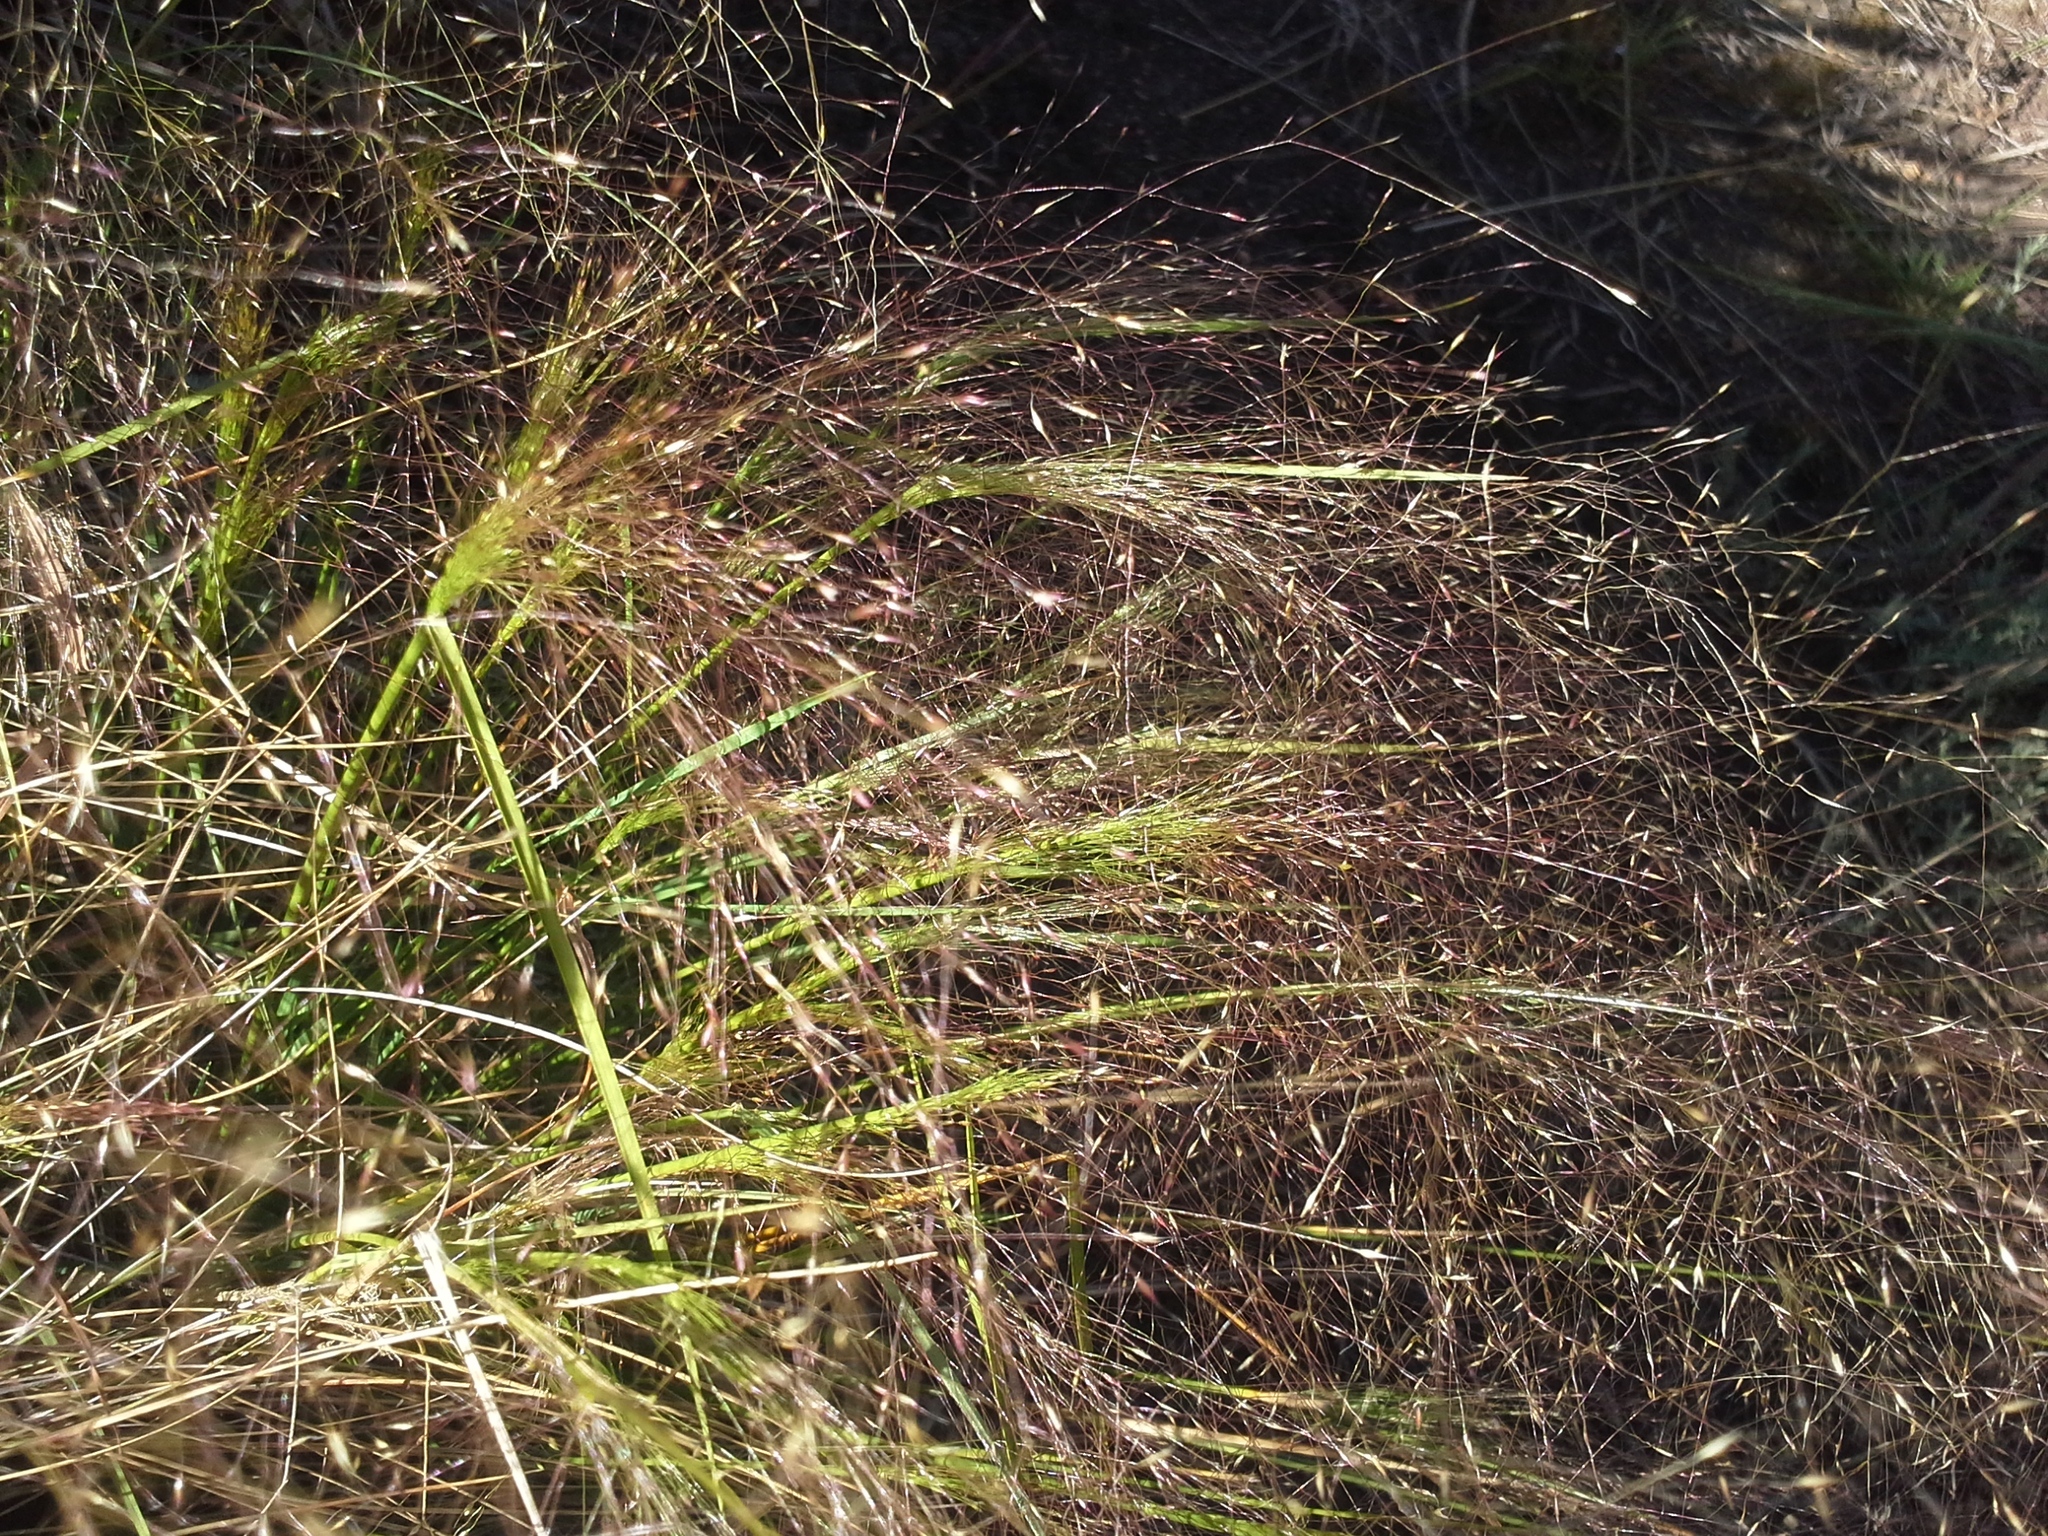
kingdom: Plantae
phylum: Tracheophyta
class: Liliopsida
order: Poales
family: Poaceae
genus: Agrostis
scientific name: Agrostis montevidensis
